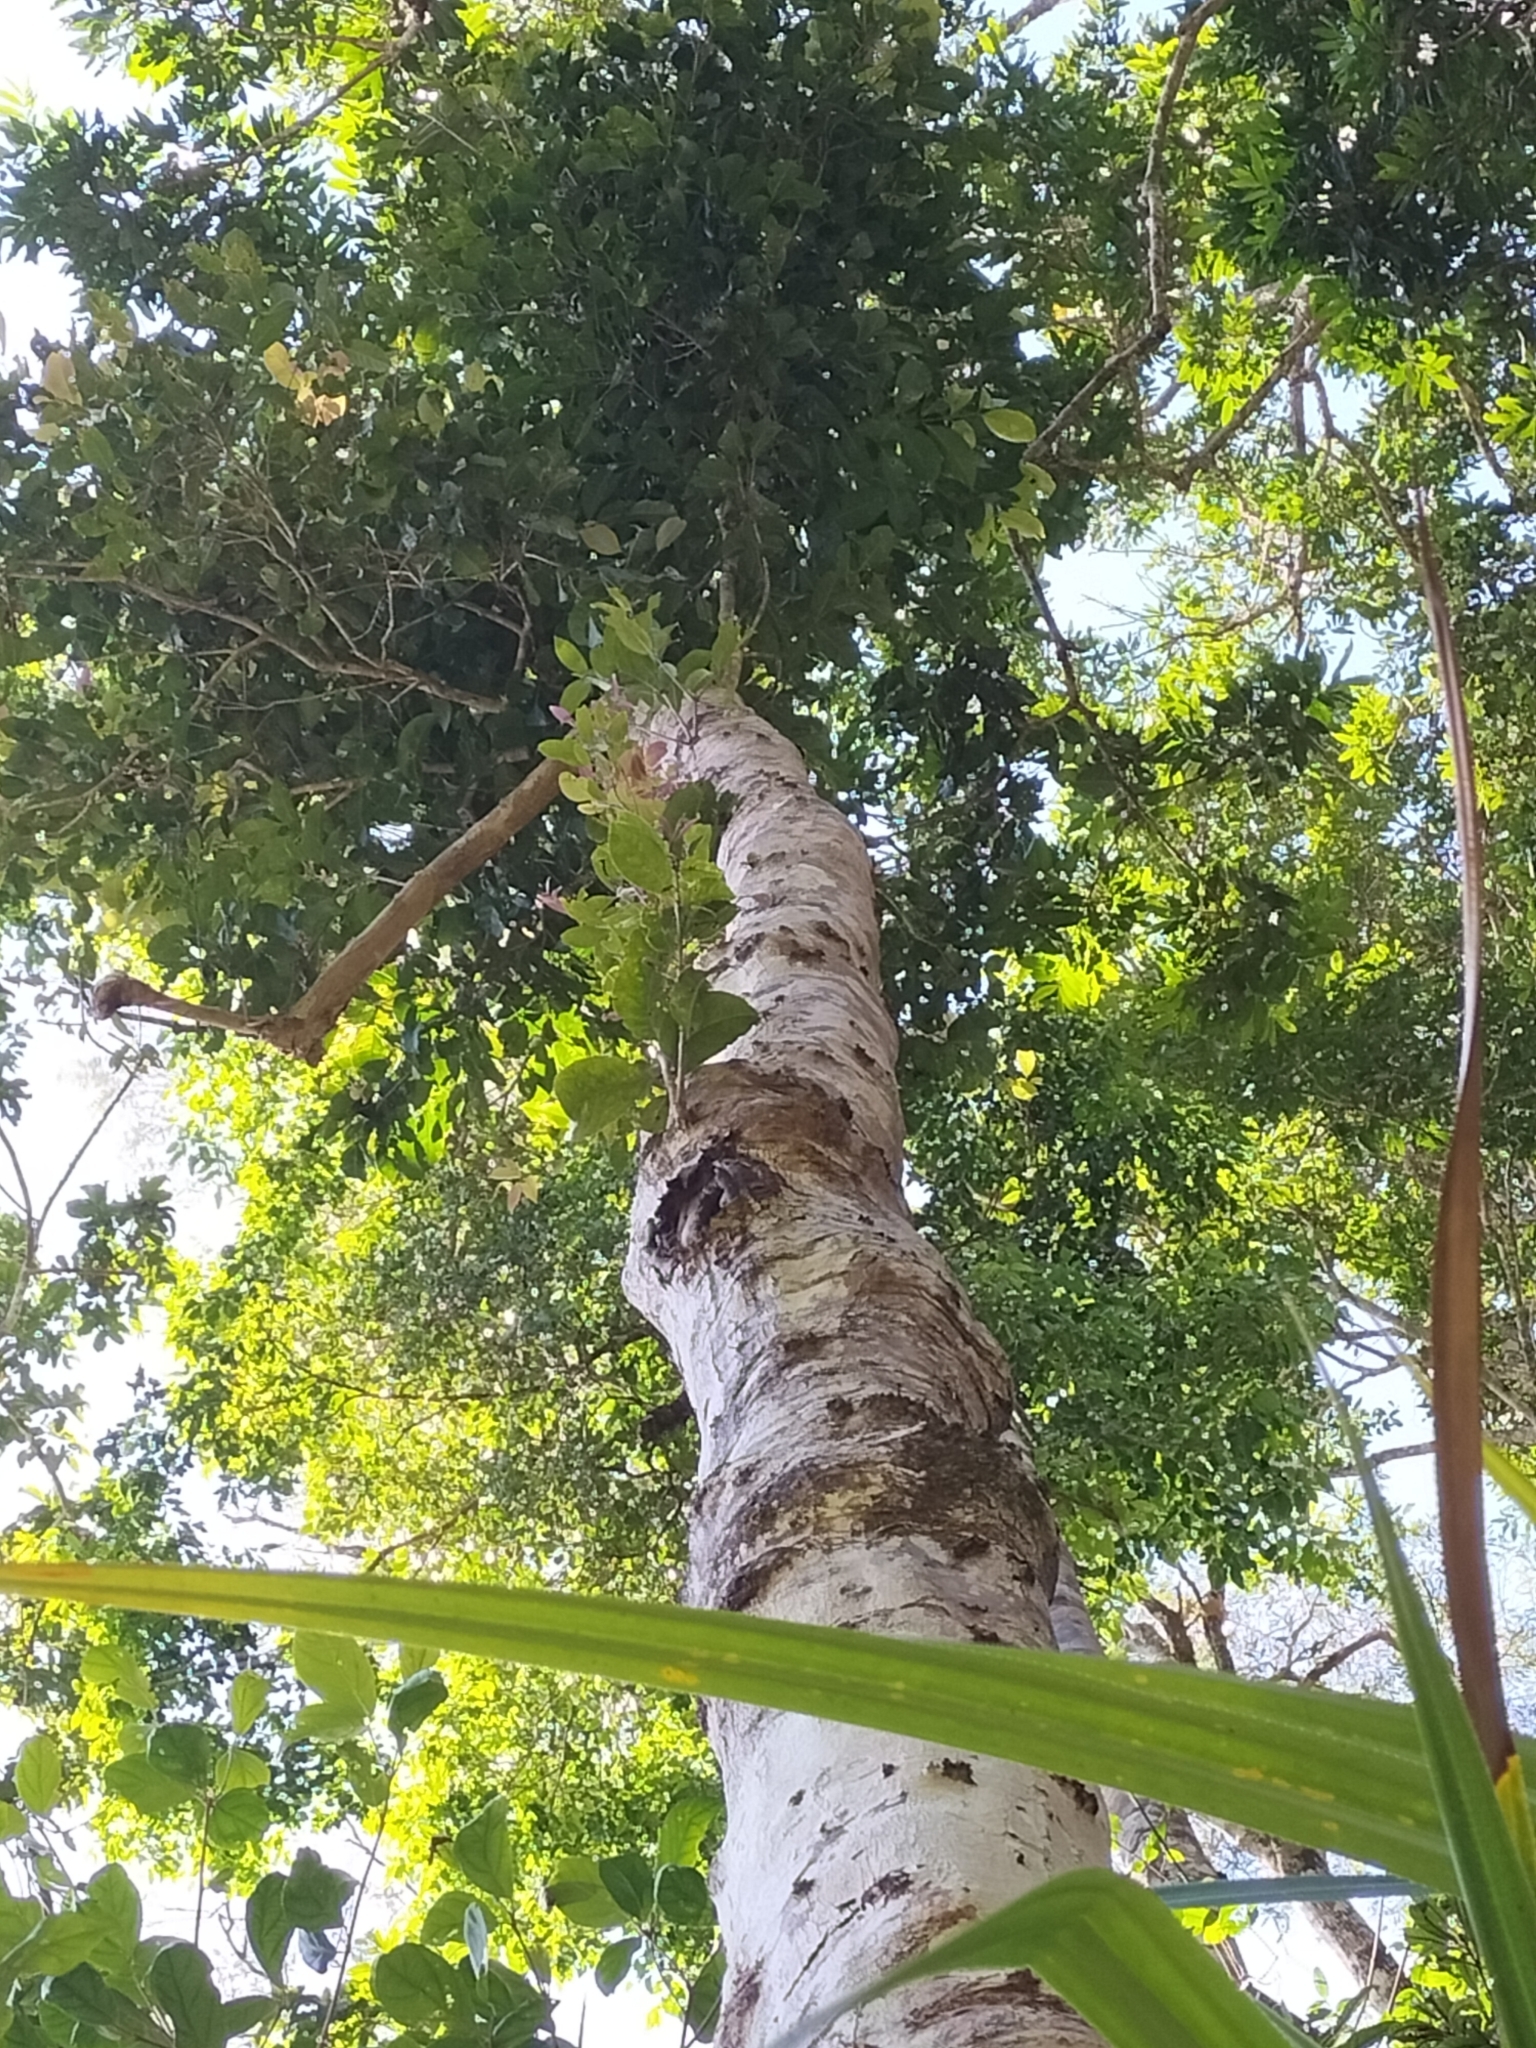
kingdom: Plantae
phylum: Tracheophyta
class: Magnoliopsida
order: Myrtales
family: Myrtaceae
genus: Syzygium
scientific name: Syzygium cormiflorum
